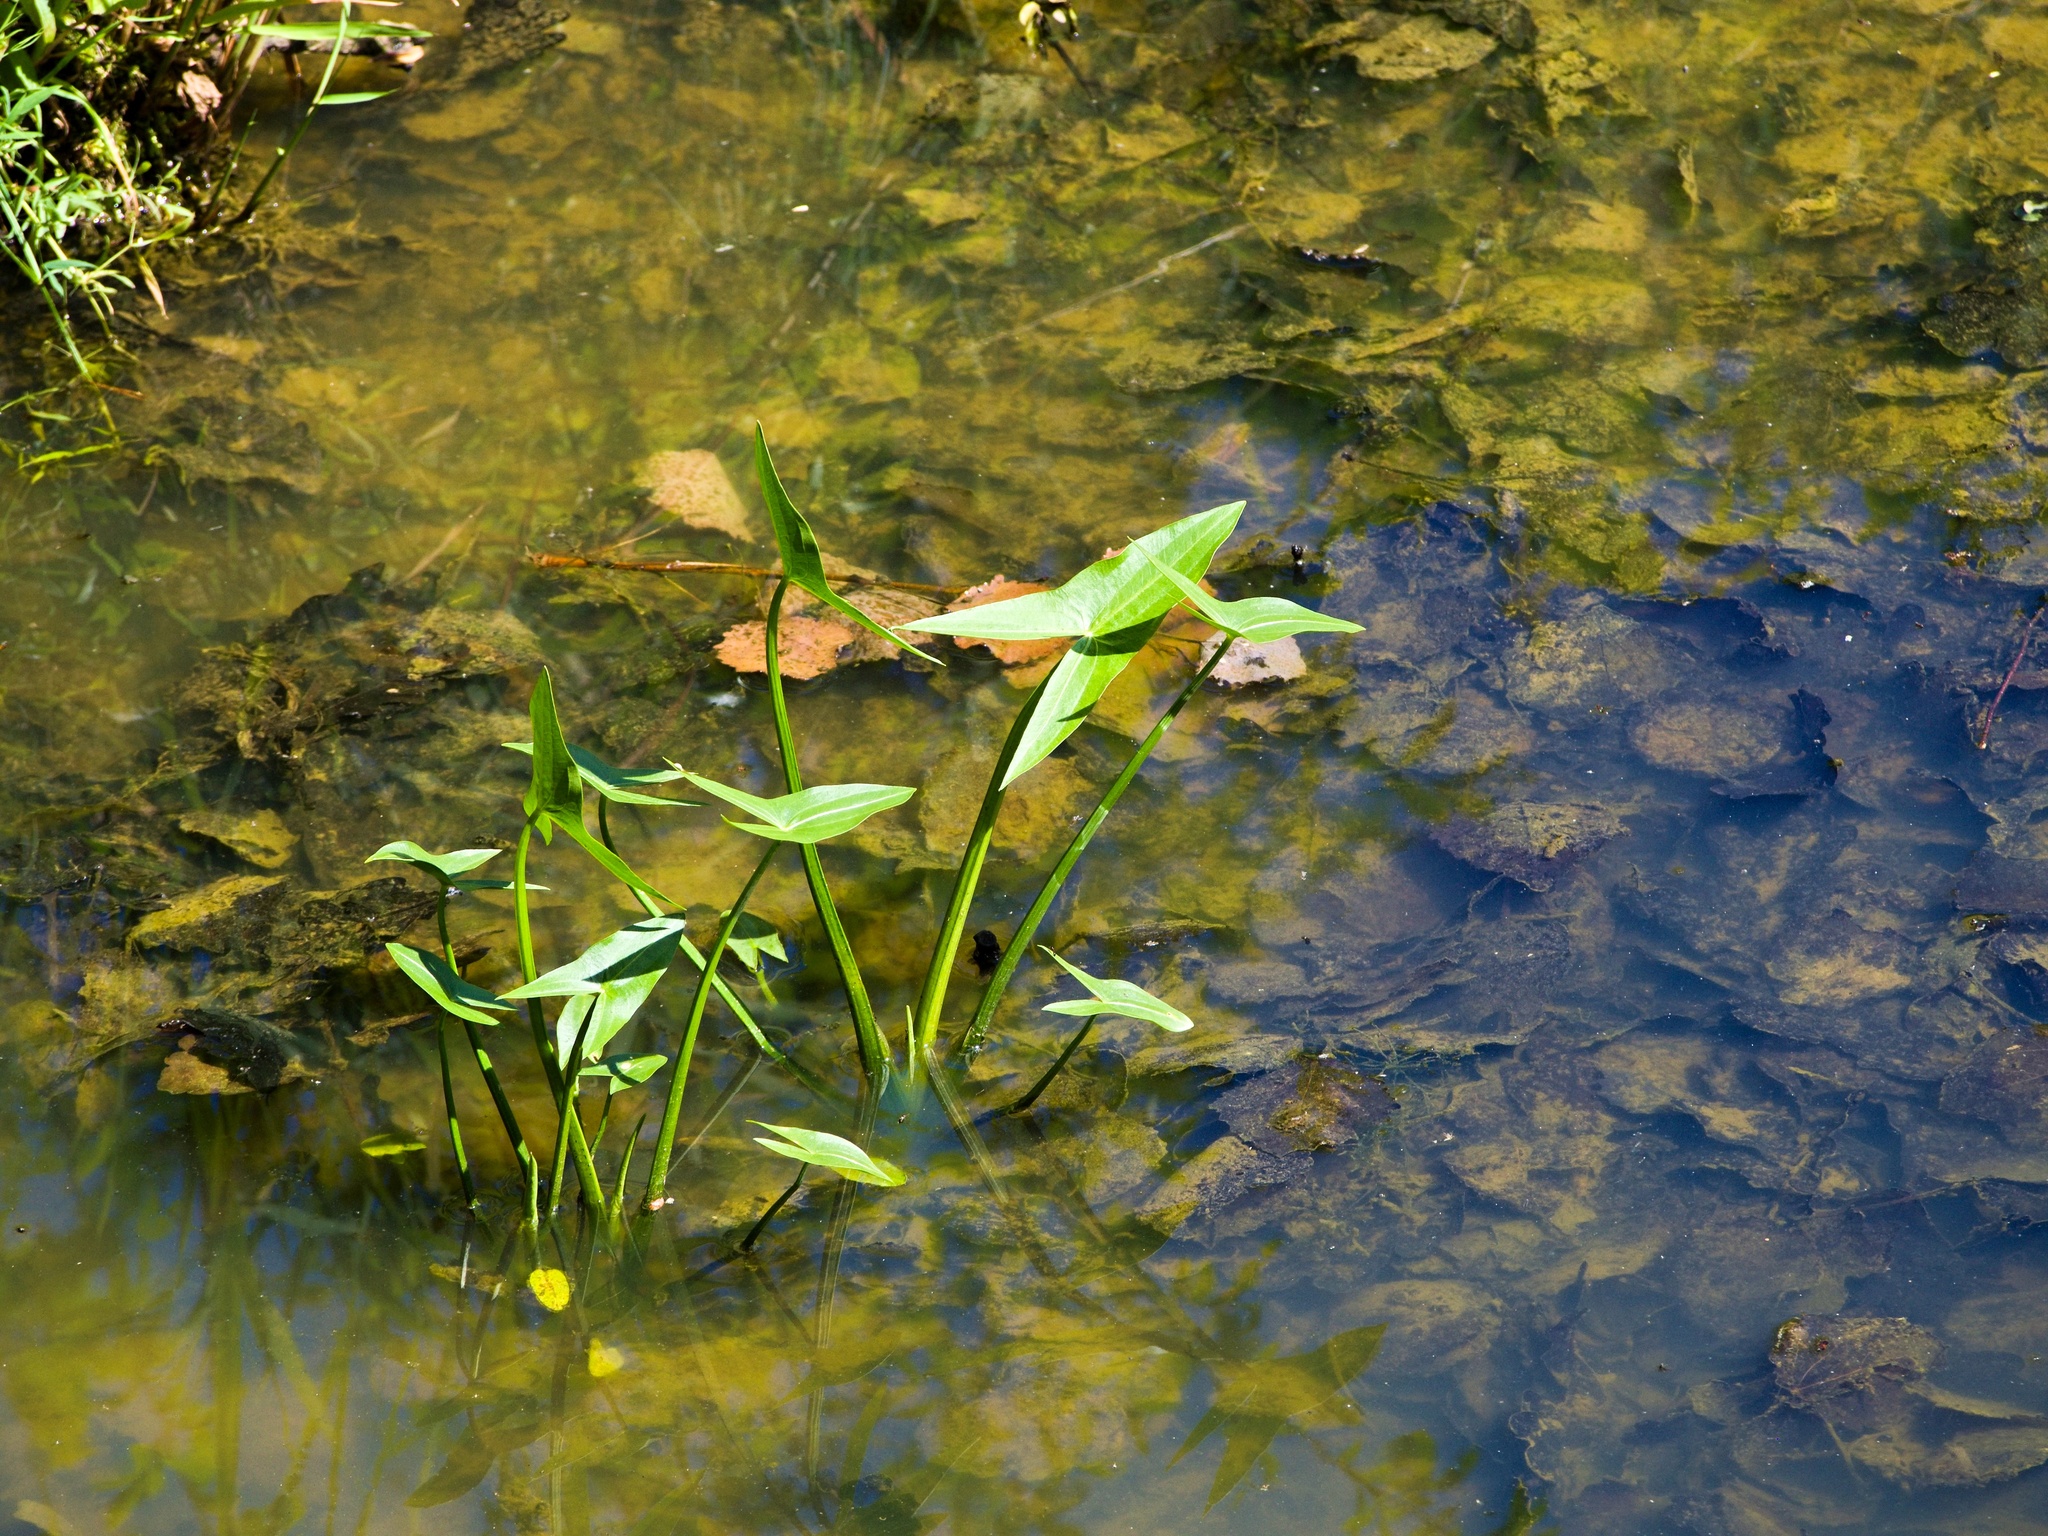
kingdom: Plantae
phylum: Tracheophyta
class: Liliopsida
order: Alismatales
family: Alismataceae
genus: Sagittaria
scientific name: Sagittaria sagittifolia
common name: Arrowhead
